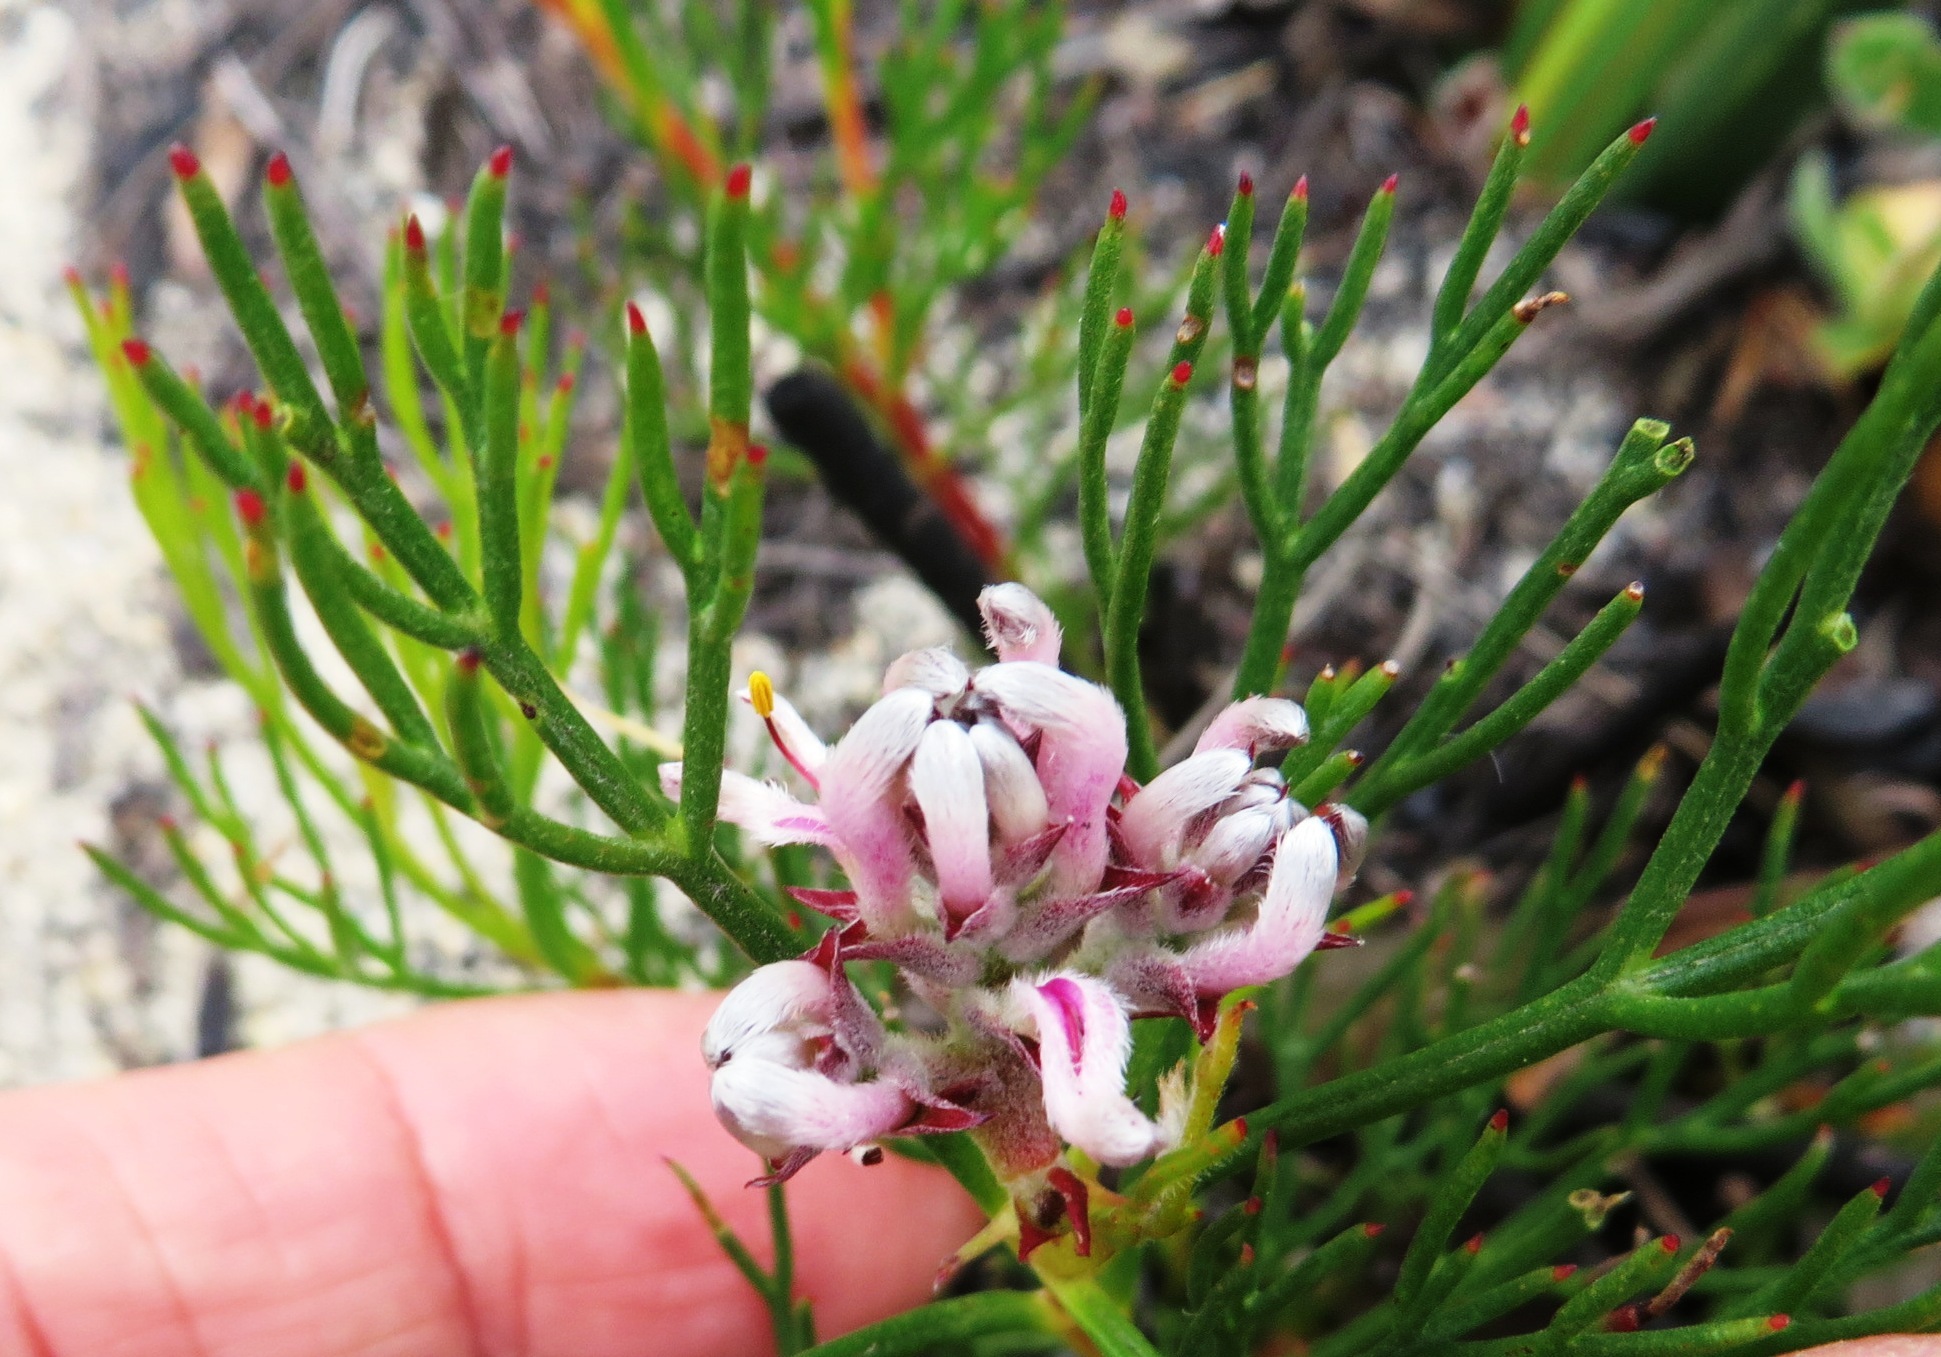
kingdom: Plantae
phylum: Tracheophyta
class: Magnoliopsida
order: Proteales
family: Proteaceae
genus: Serruria
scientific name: Serruria rubricaulis
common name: Red-stem spiderhead
